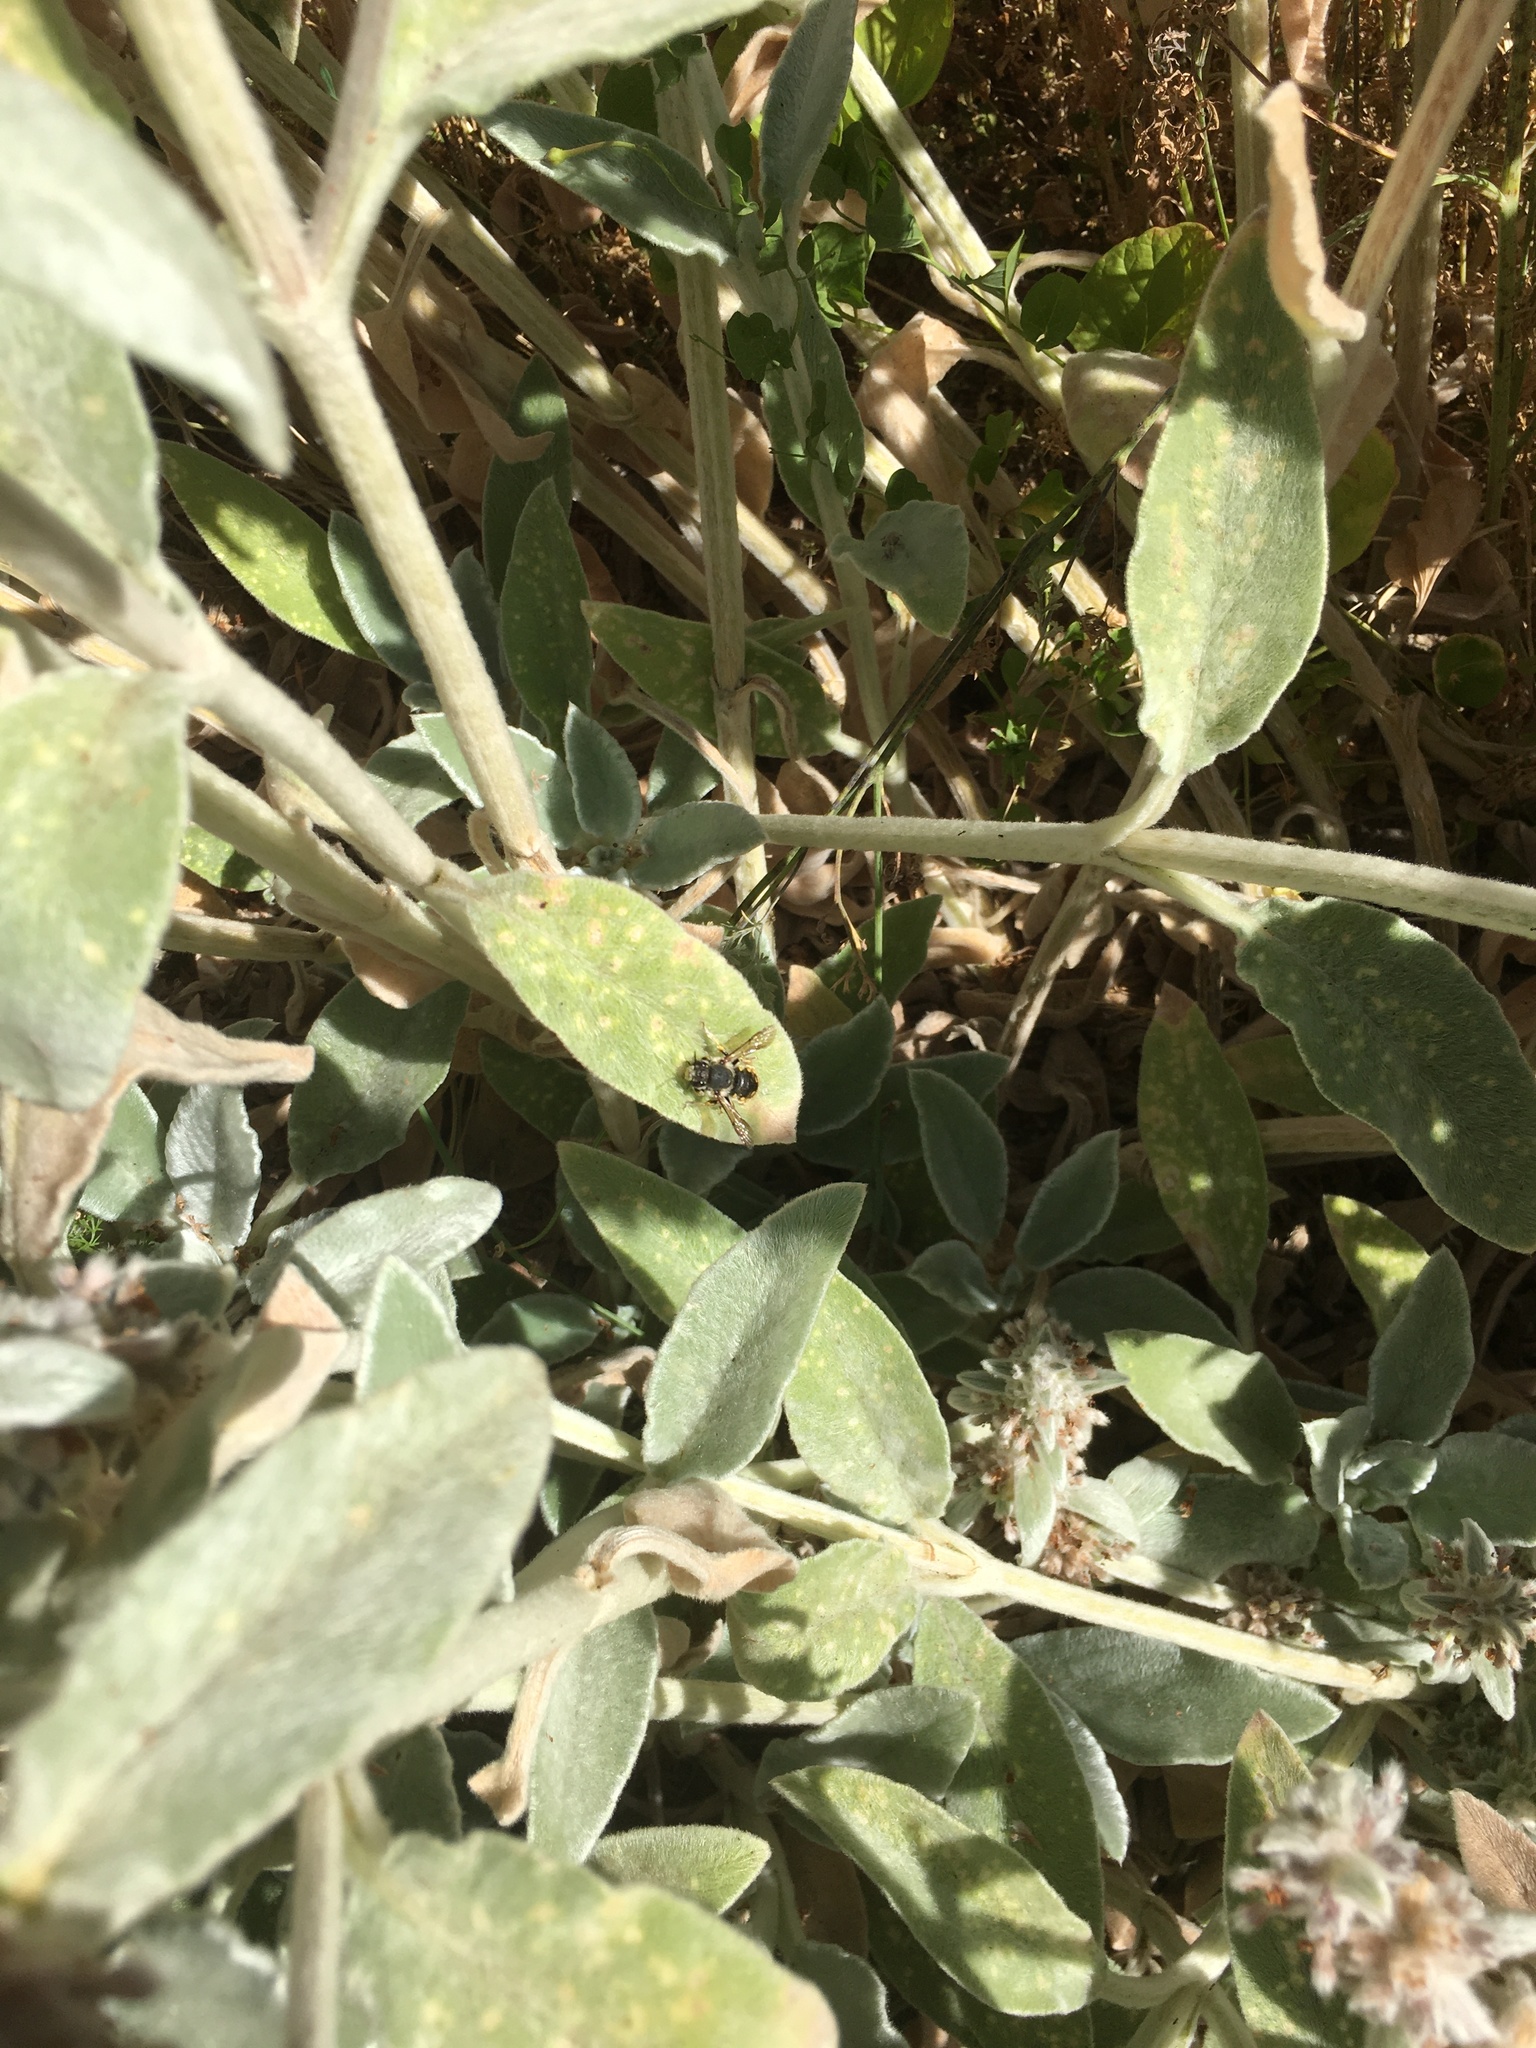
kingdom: Animalia
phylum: Arthropoda
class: Insecta
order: Hymenoptera
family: Megachilidae
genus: Anthidium
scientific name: Anthidium manicatum
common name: Wool carder bee
